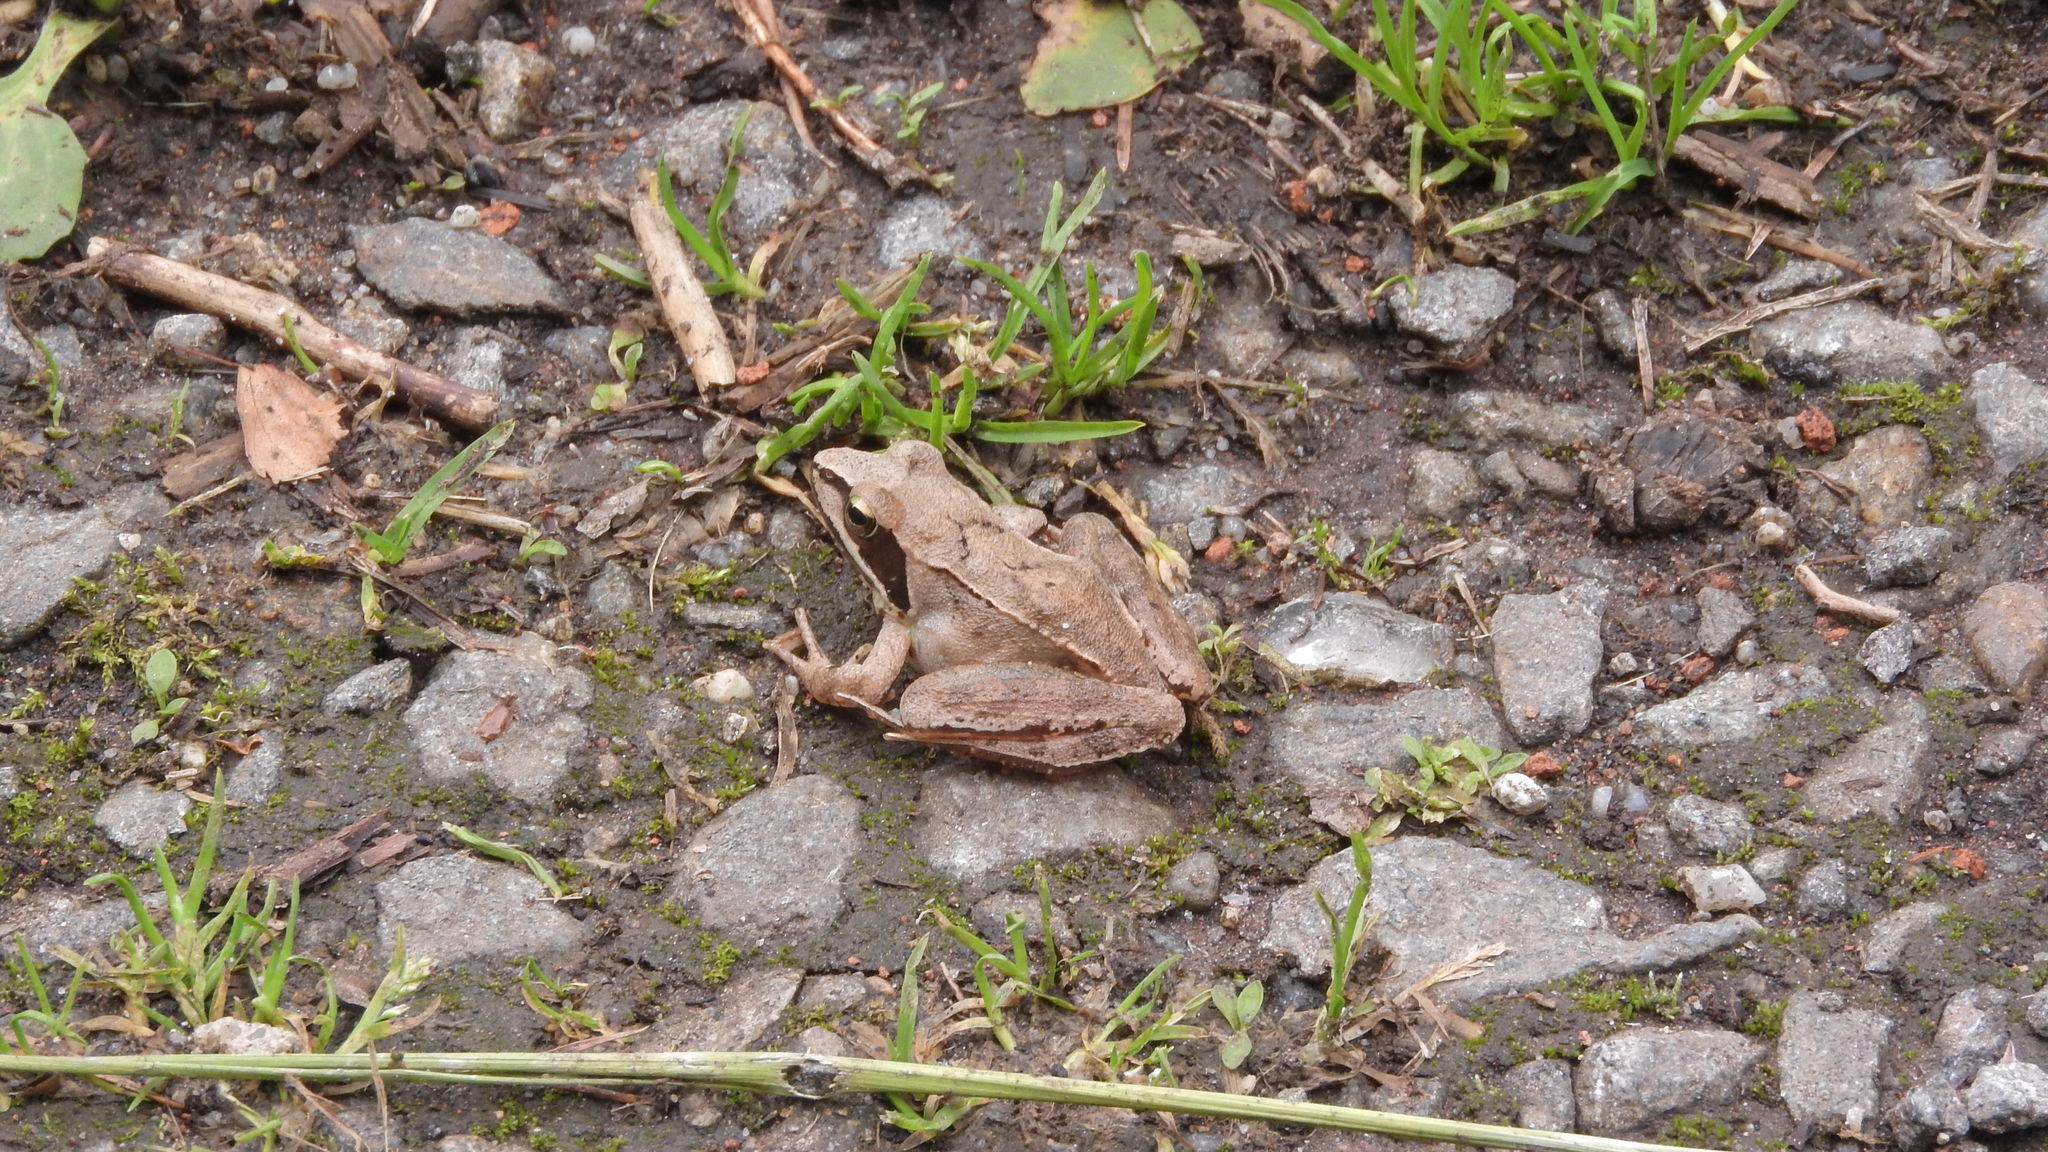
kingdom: Animalia
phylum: Chordata
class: Amphibia
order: Anura
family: Ranidae
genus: Rana
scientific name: Rana dalmatina
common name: Agile frog
